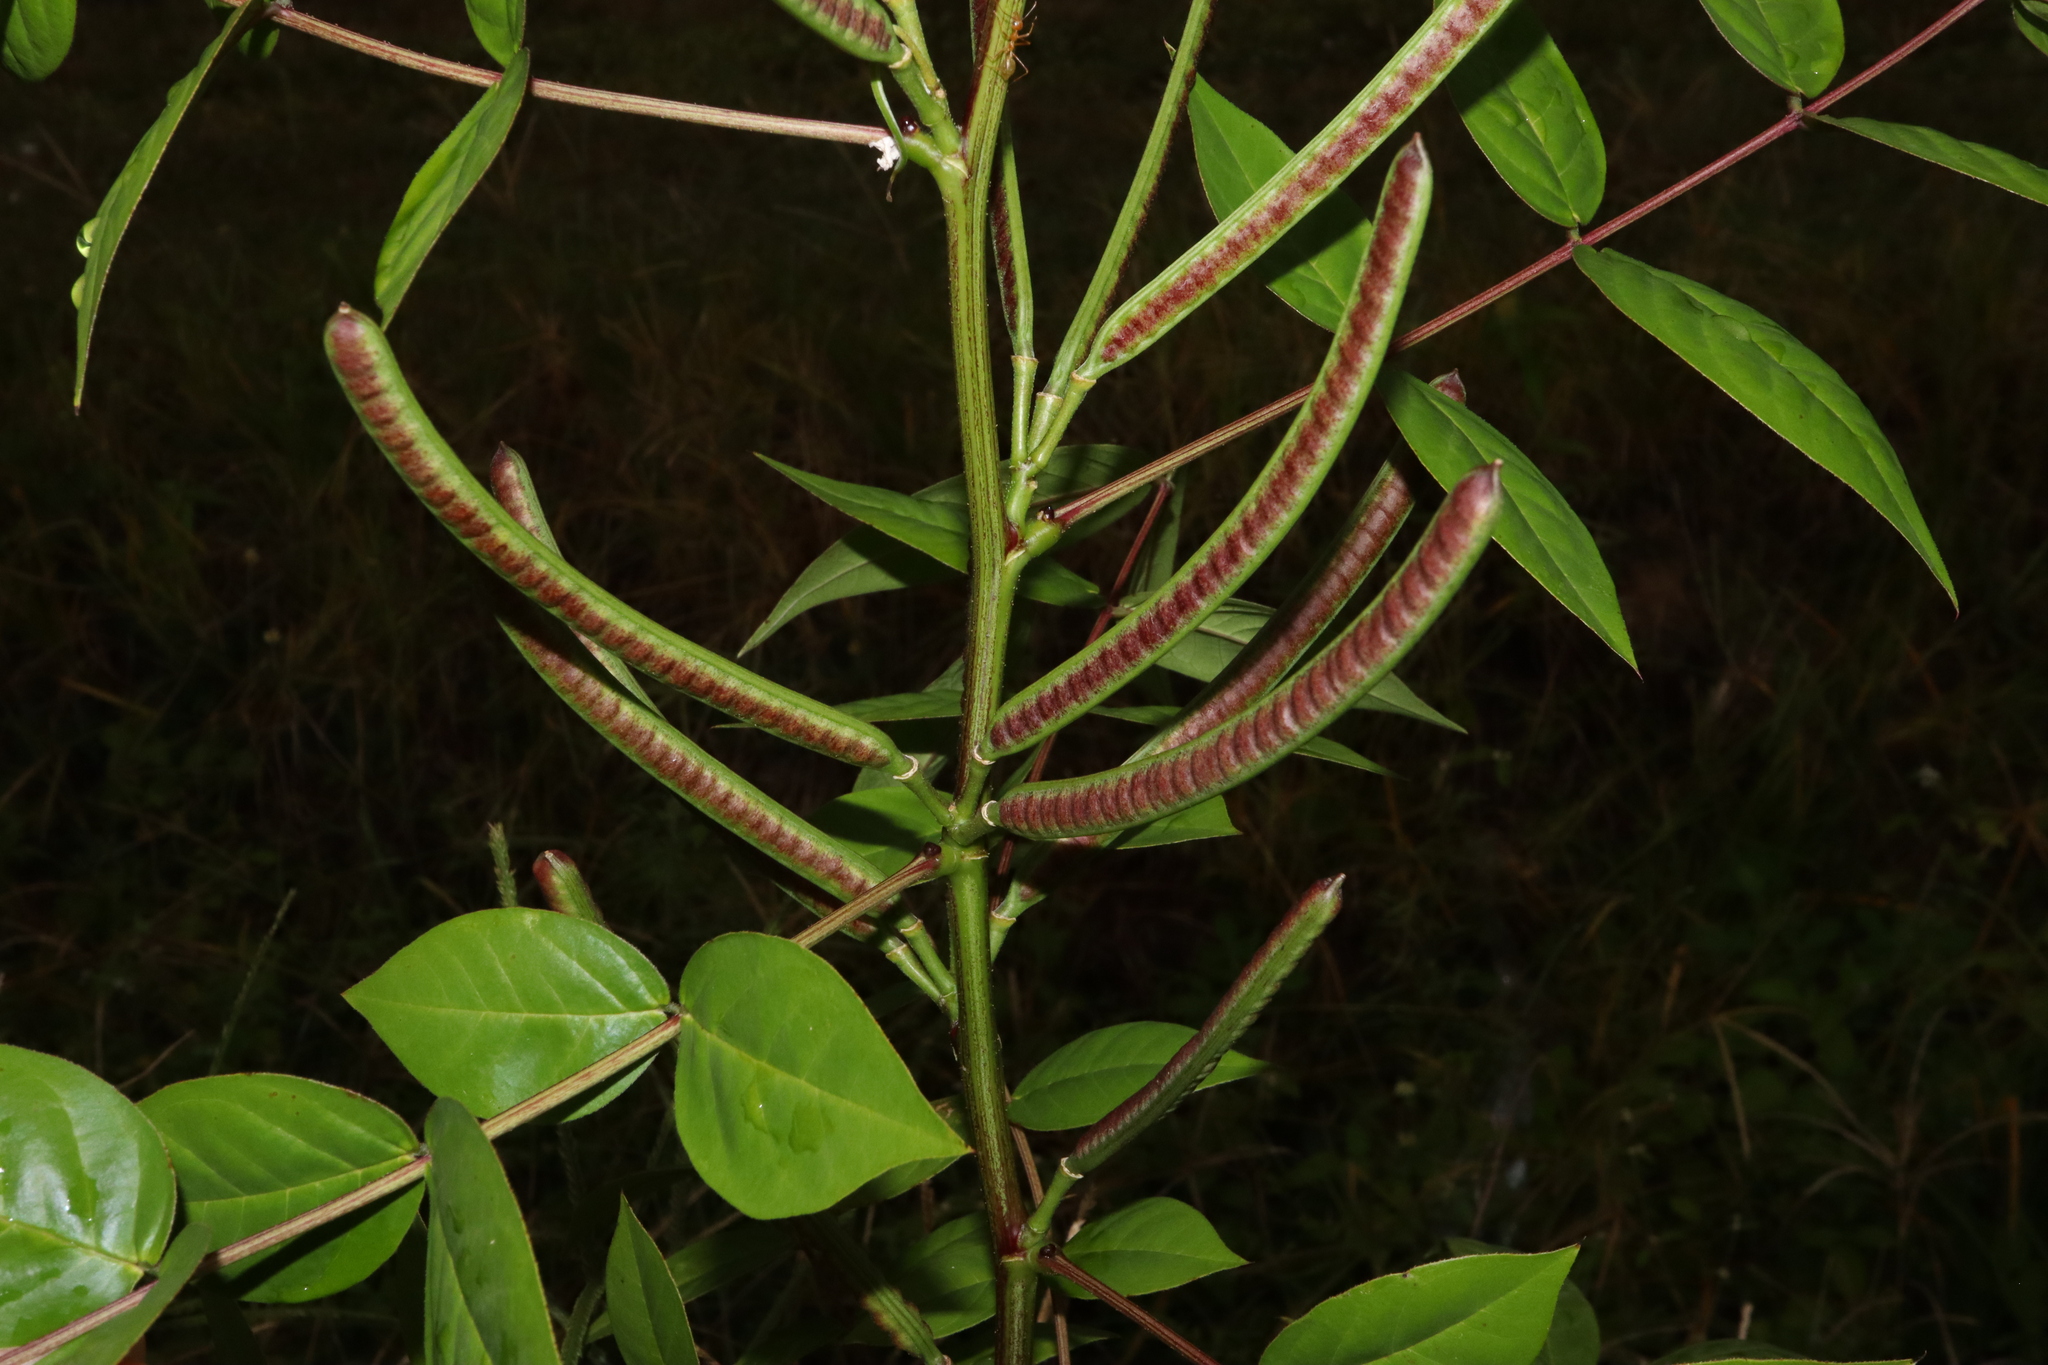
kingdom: Plantae
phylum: Tracheophyta
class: Magnoliopsida
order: Fabales
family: Fabaceae
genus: Senna
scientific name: Senna occidentalis
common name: Septicweed
